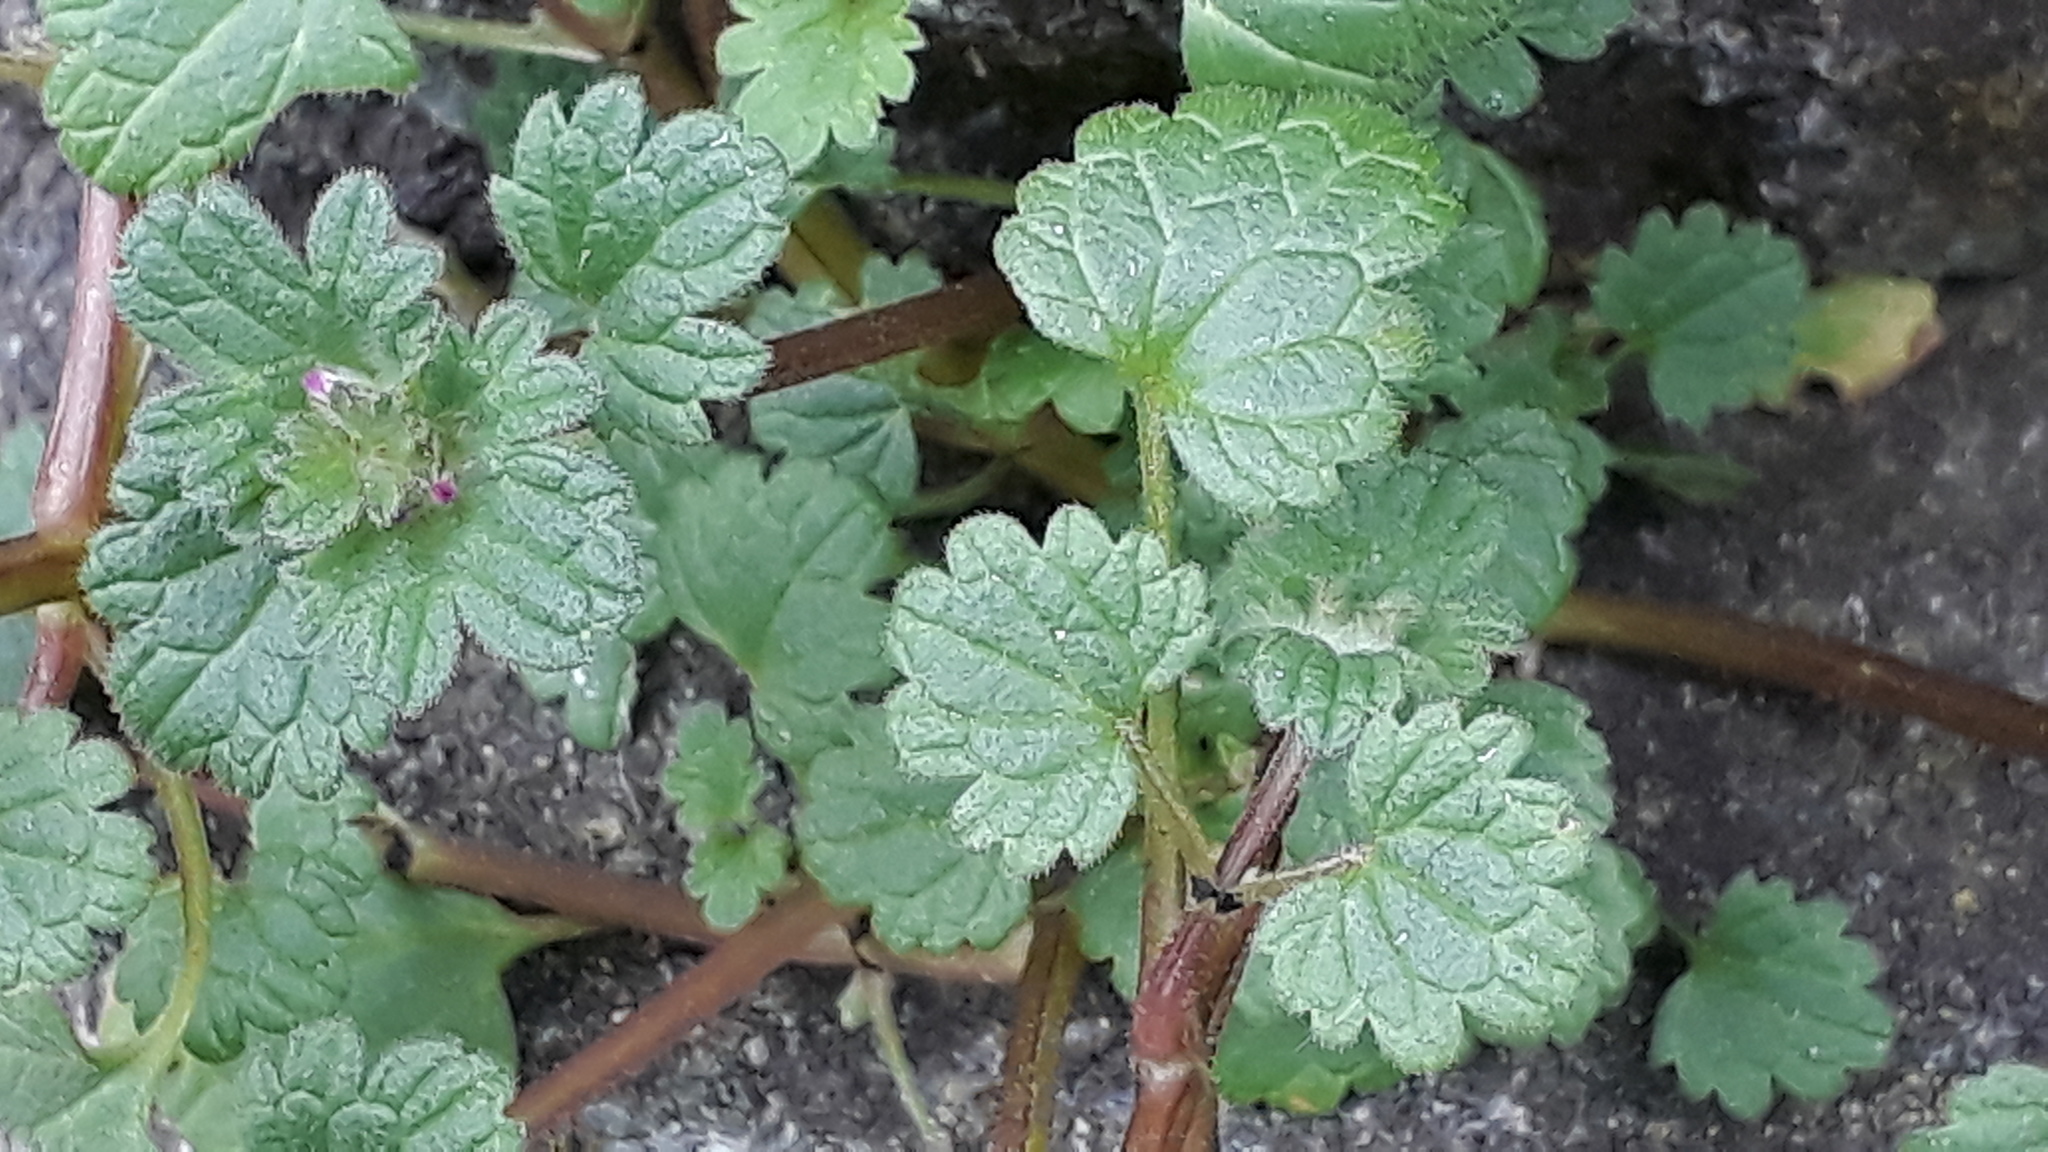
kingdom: Plantae
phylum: Tracheophyta
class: Magnoliopsida
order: Lamiales
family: Lamiaceae
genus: Lamium
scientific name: Lamium amplexicaule
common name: Henbit dead-nettle
